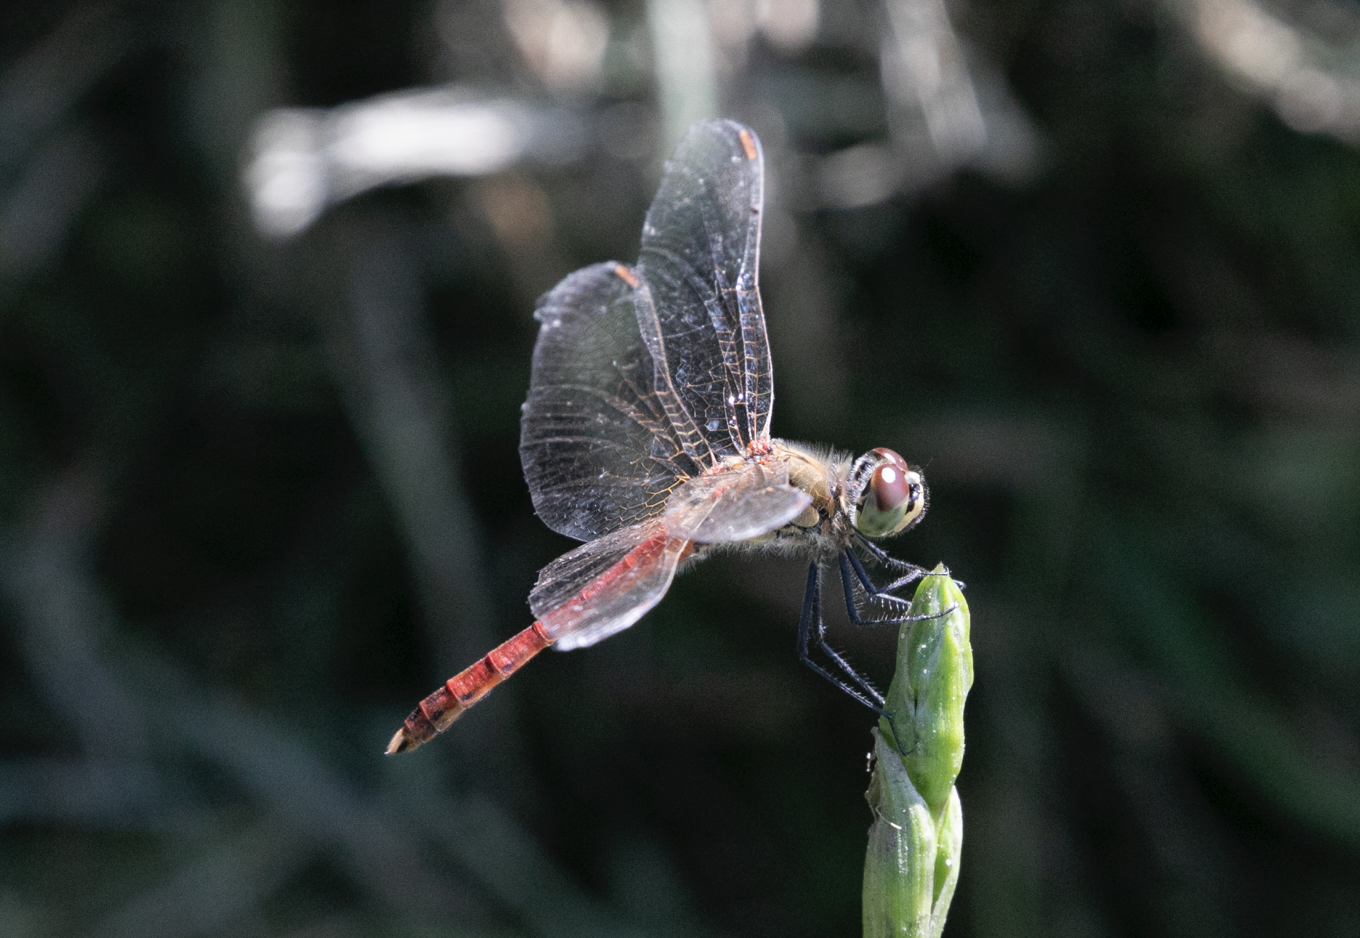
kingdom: Animalia
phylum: Arthropoda
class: Insecta
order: Odonata
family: Libellulidae
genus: Sympetrum
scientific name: Sympetrum depressiusculum
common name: Spotted darter
